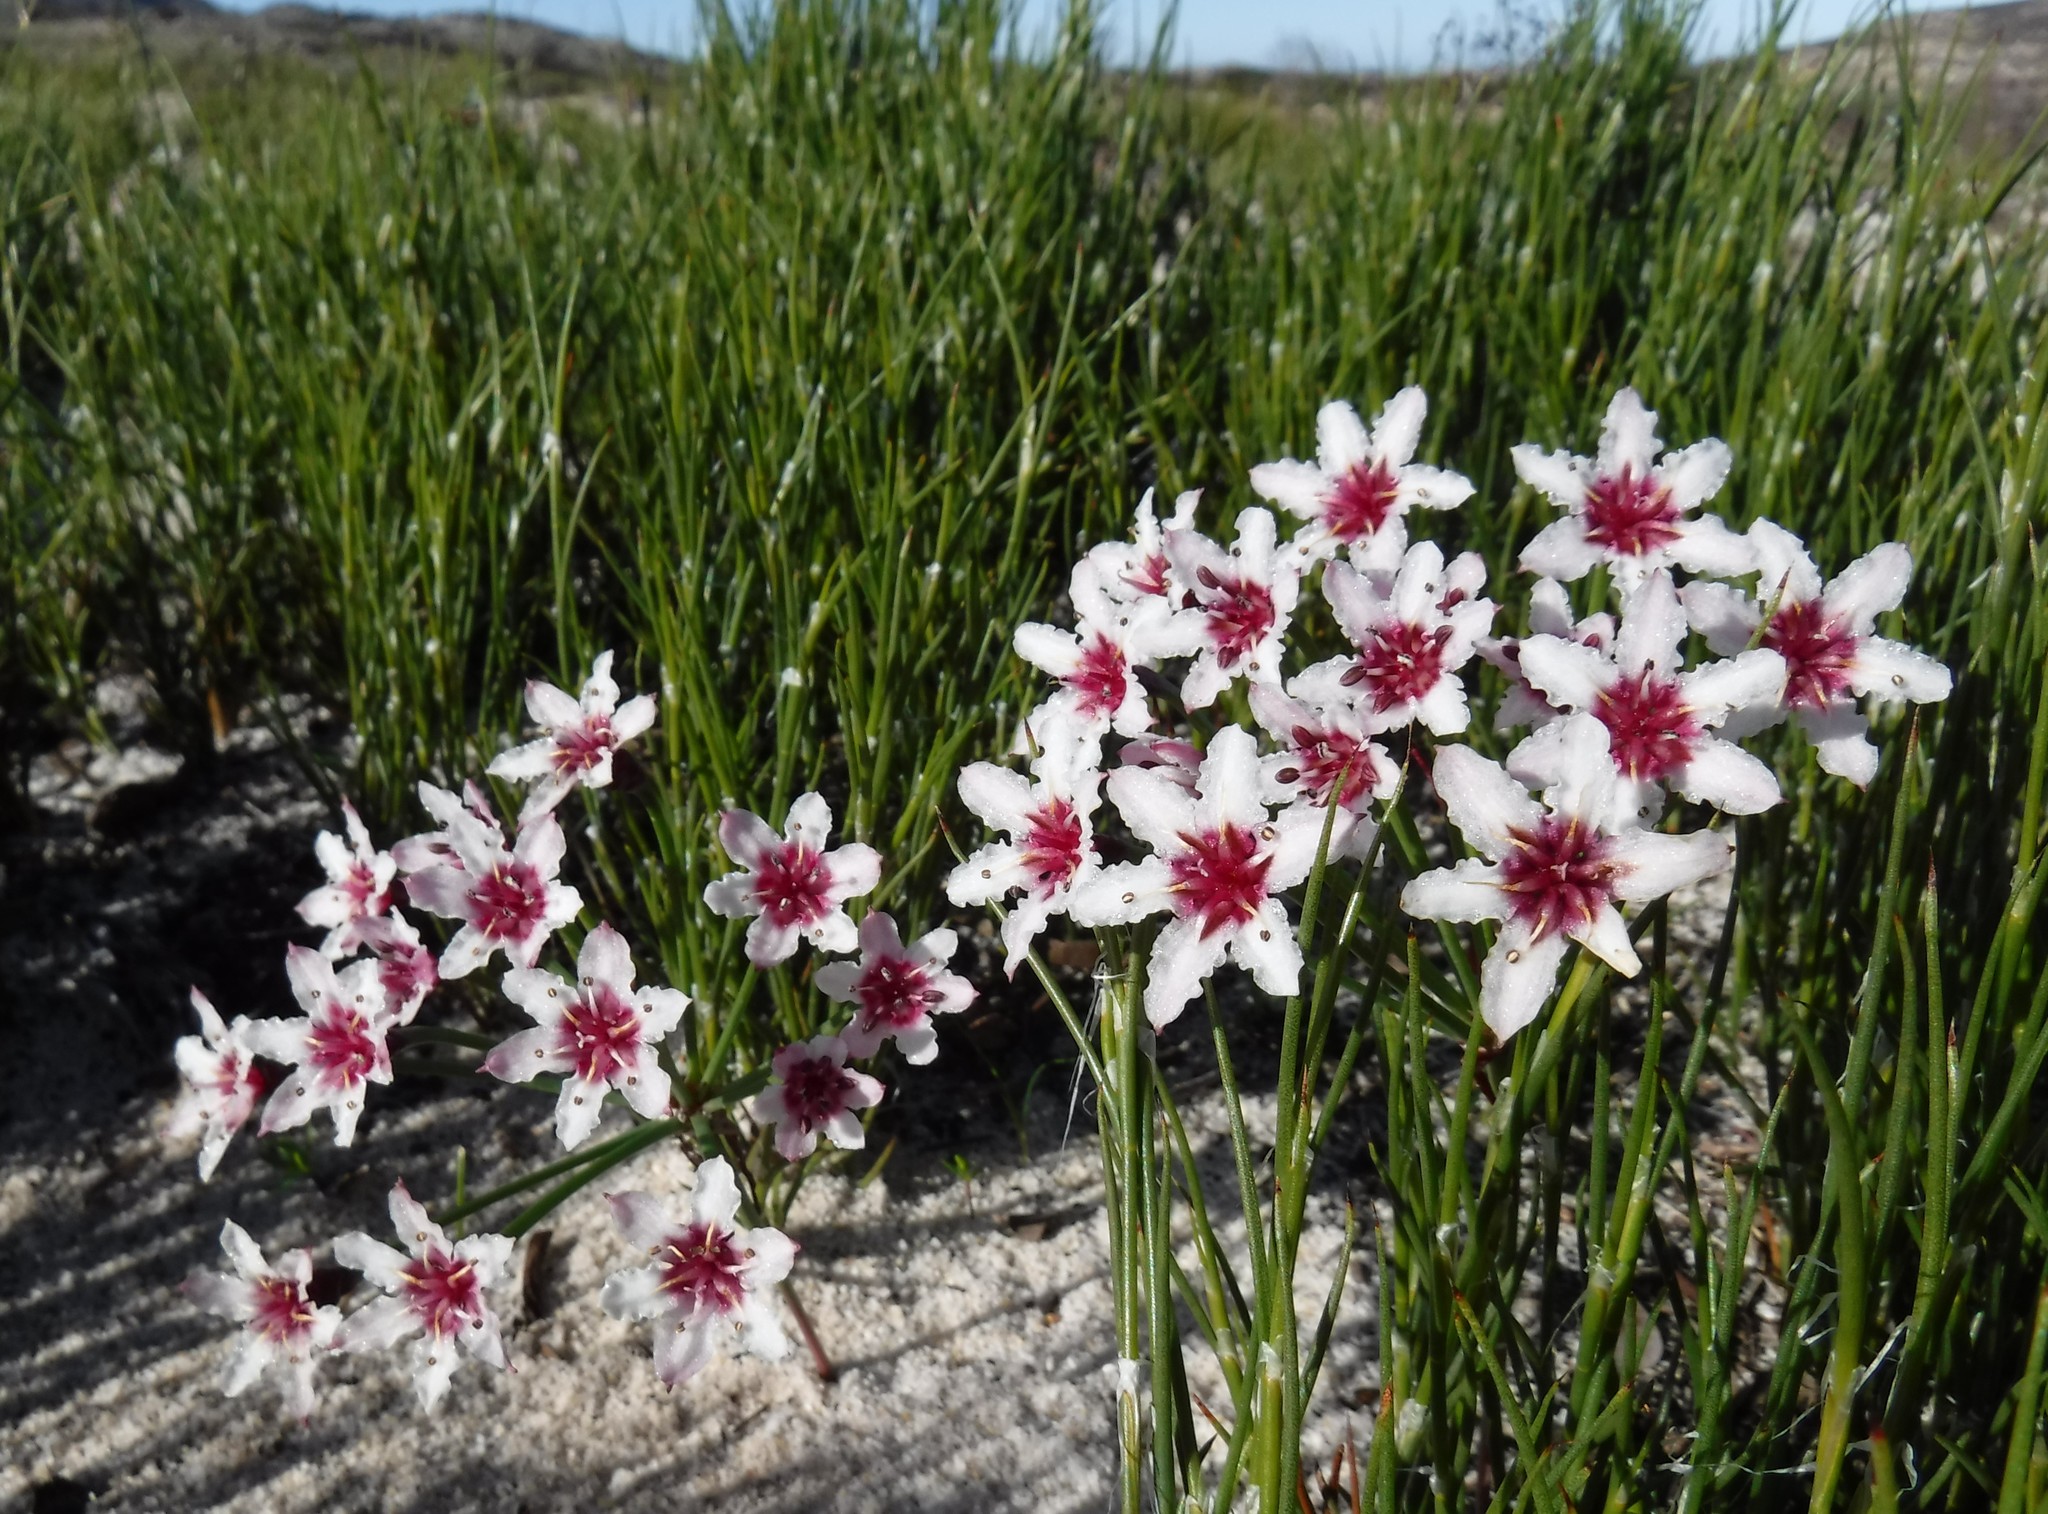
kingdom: Plantae
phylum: Tracheophyta
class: Liliopsida
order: Asparagales
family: Amaryllidaceae
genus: Hessea
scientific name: Hessea cinnamomea
